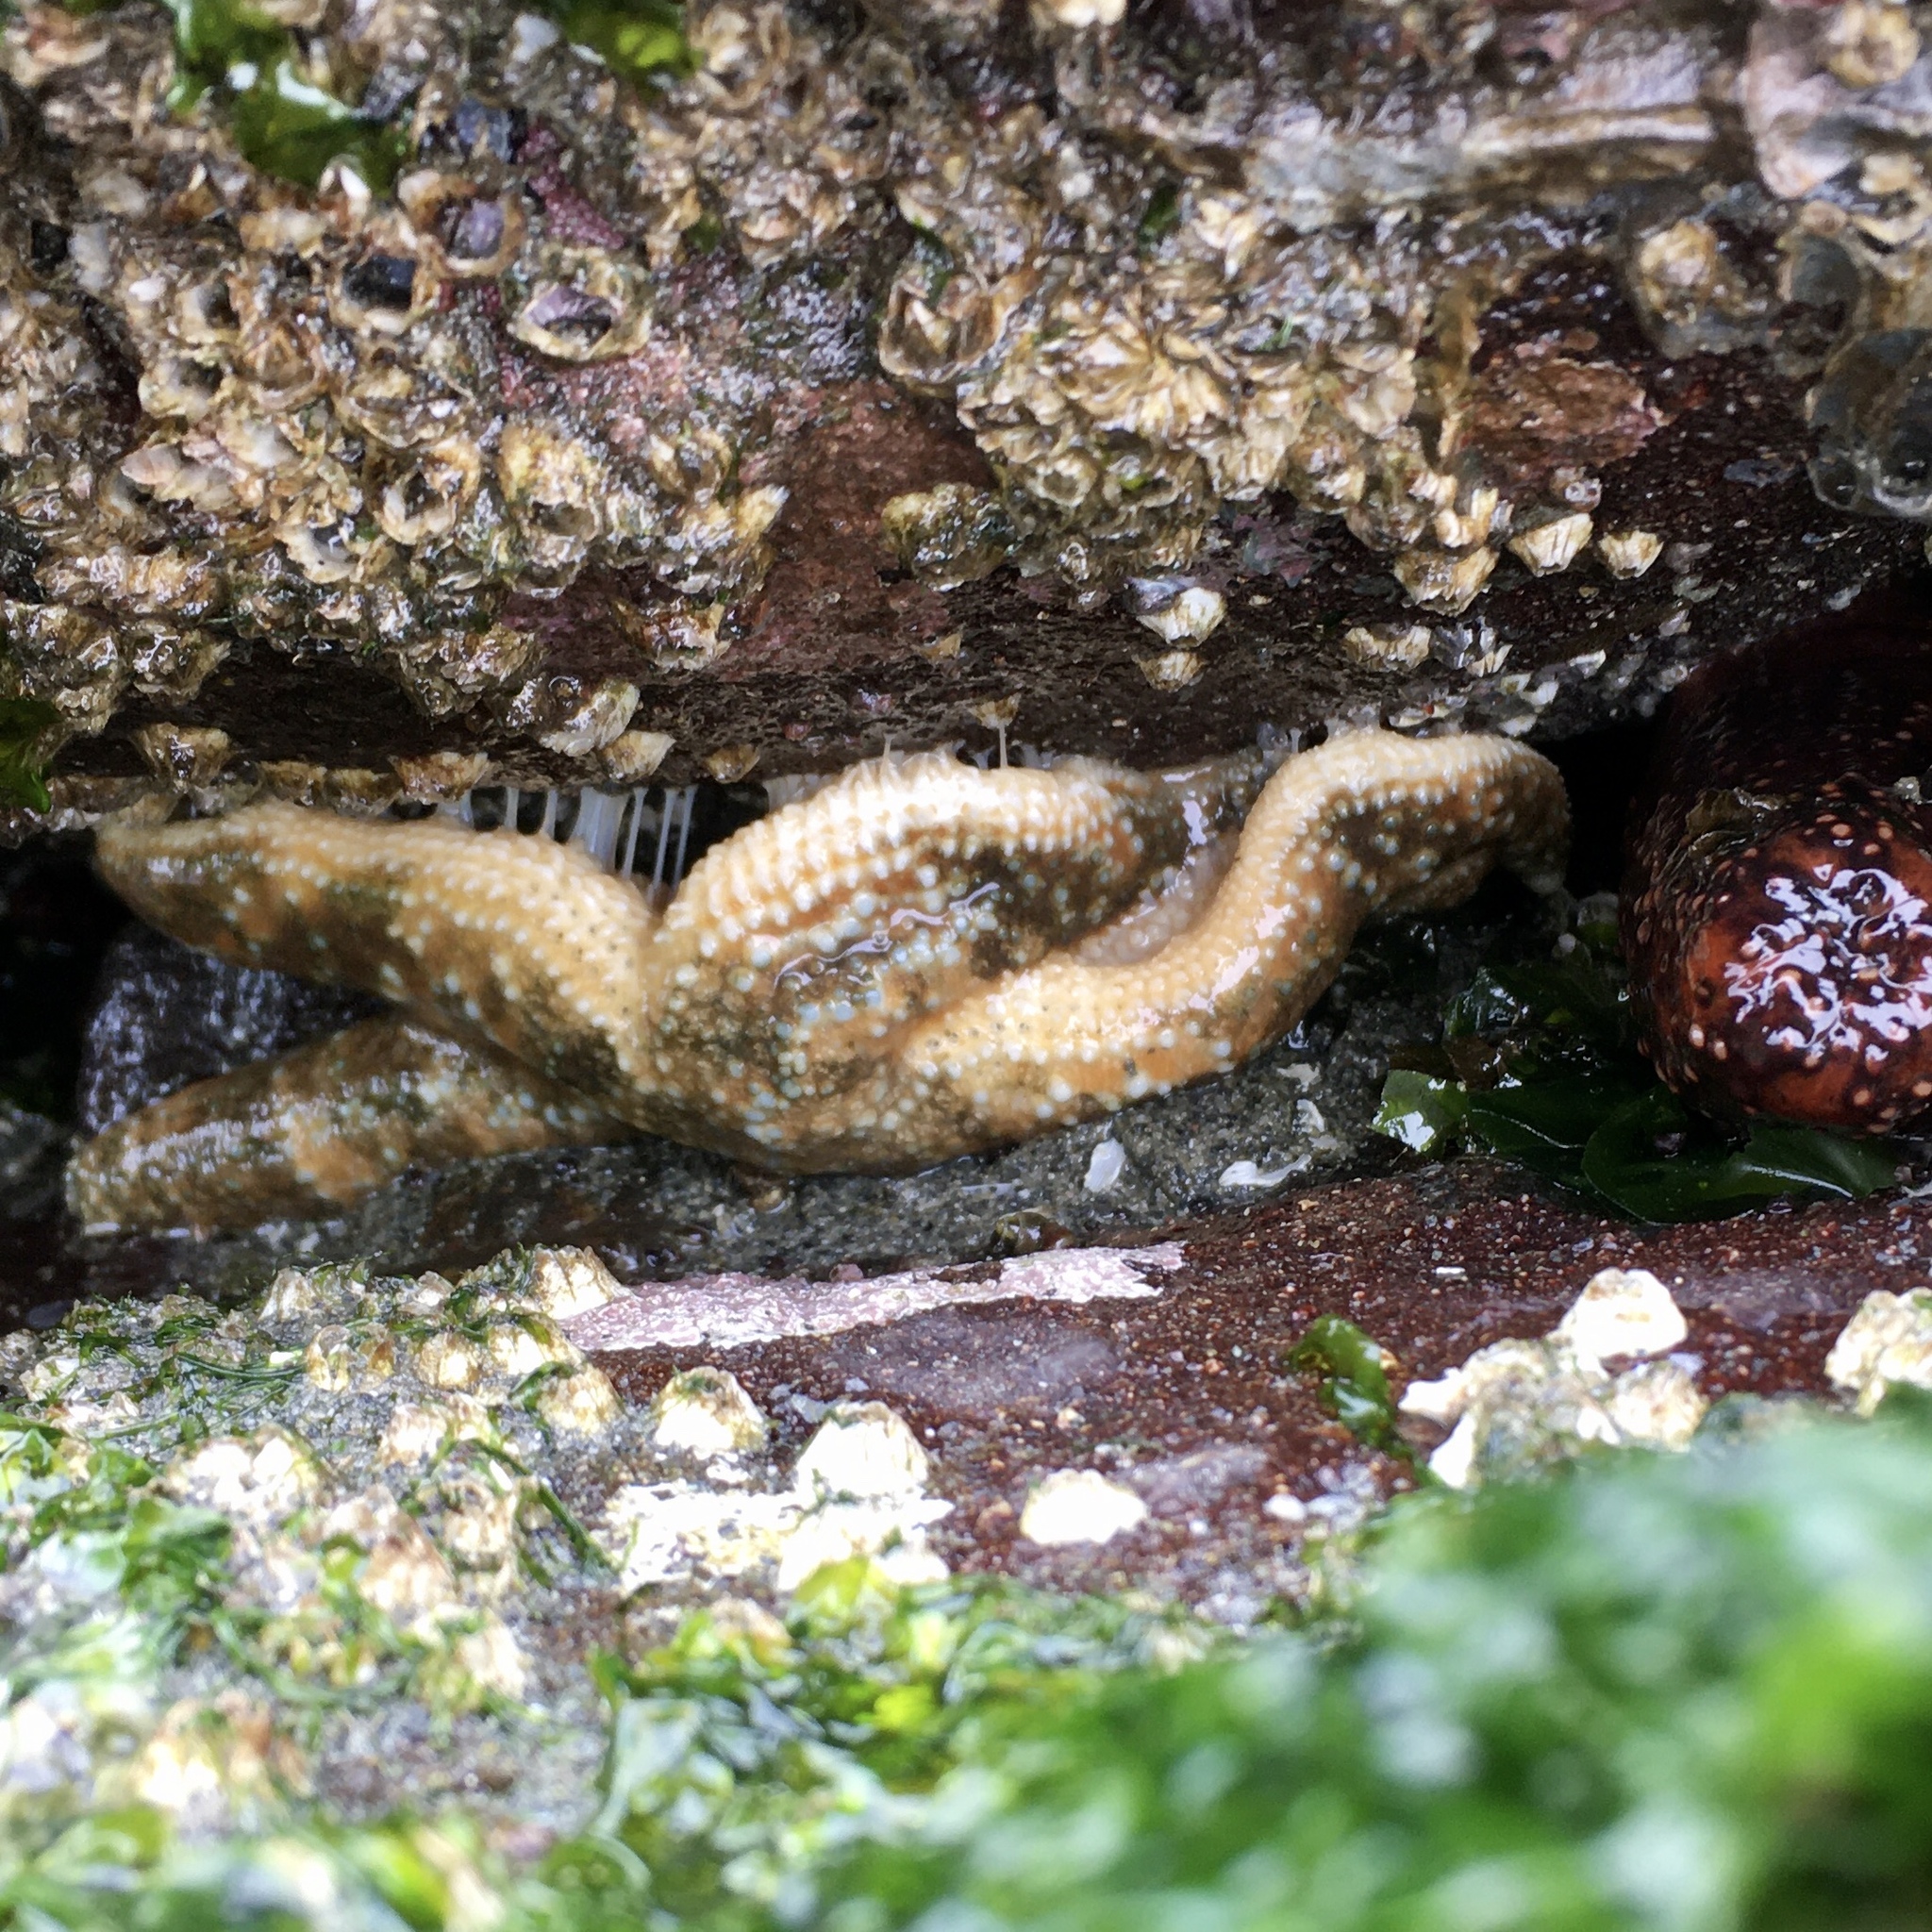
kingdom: Animalia
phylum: Echinodermata
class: Asteroidea
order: Forcipulatida
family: Asteriidae
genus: Evasterias
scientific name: Evasterias troschelii
